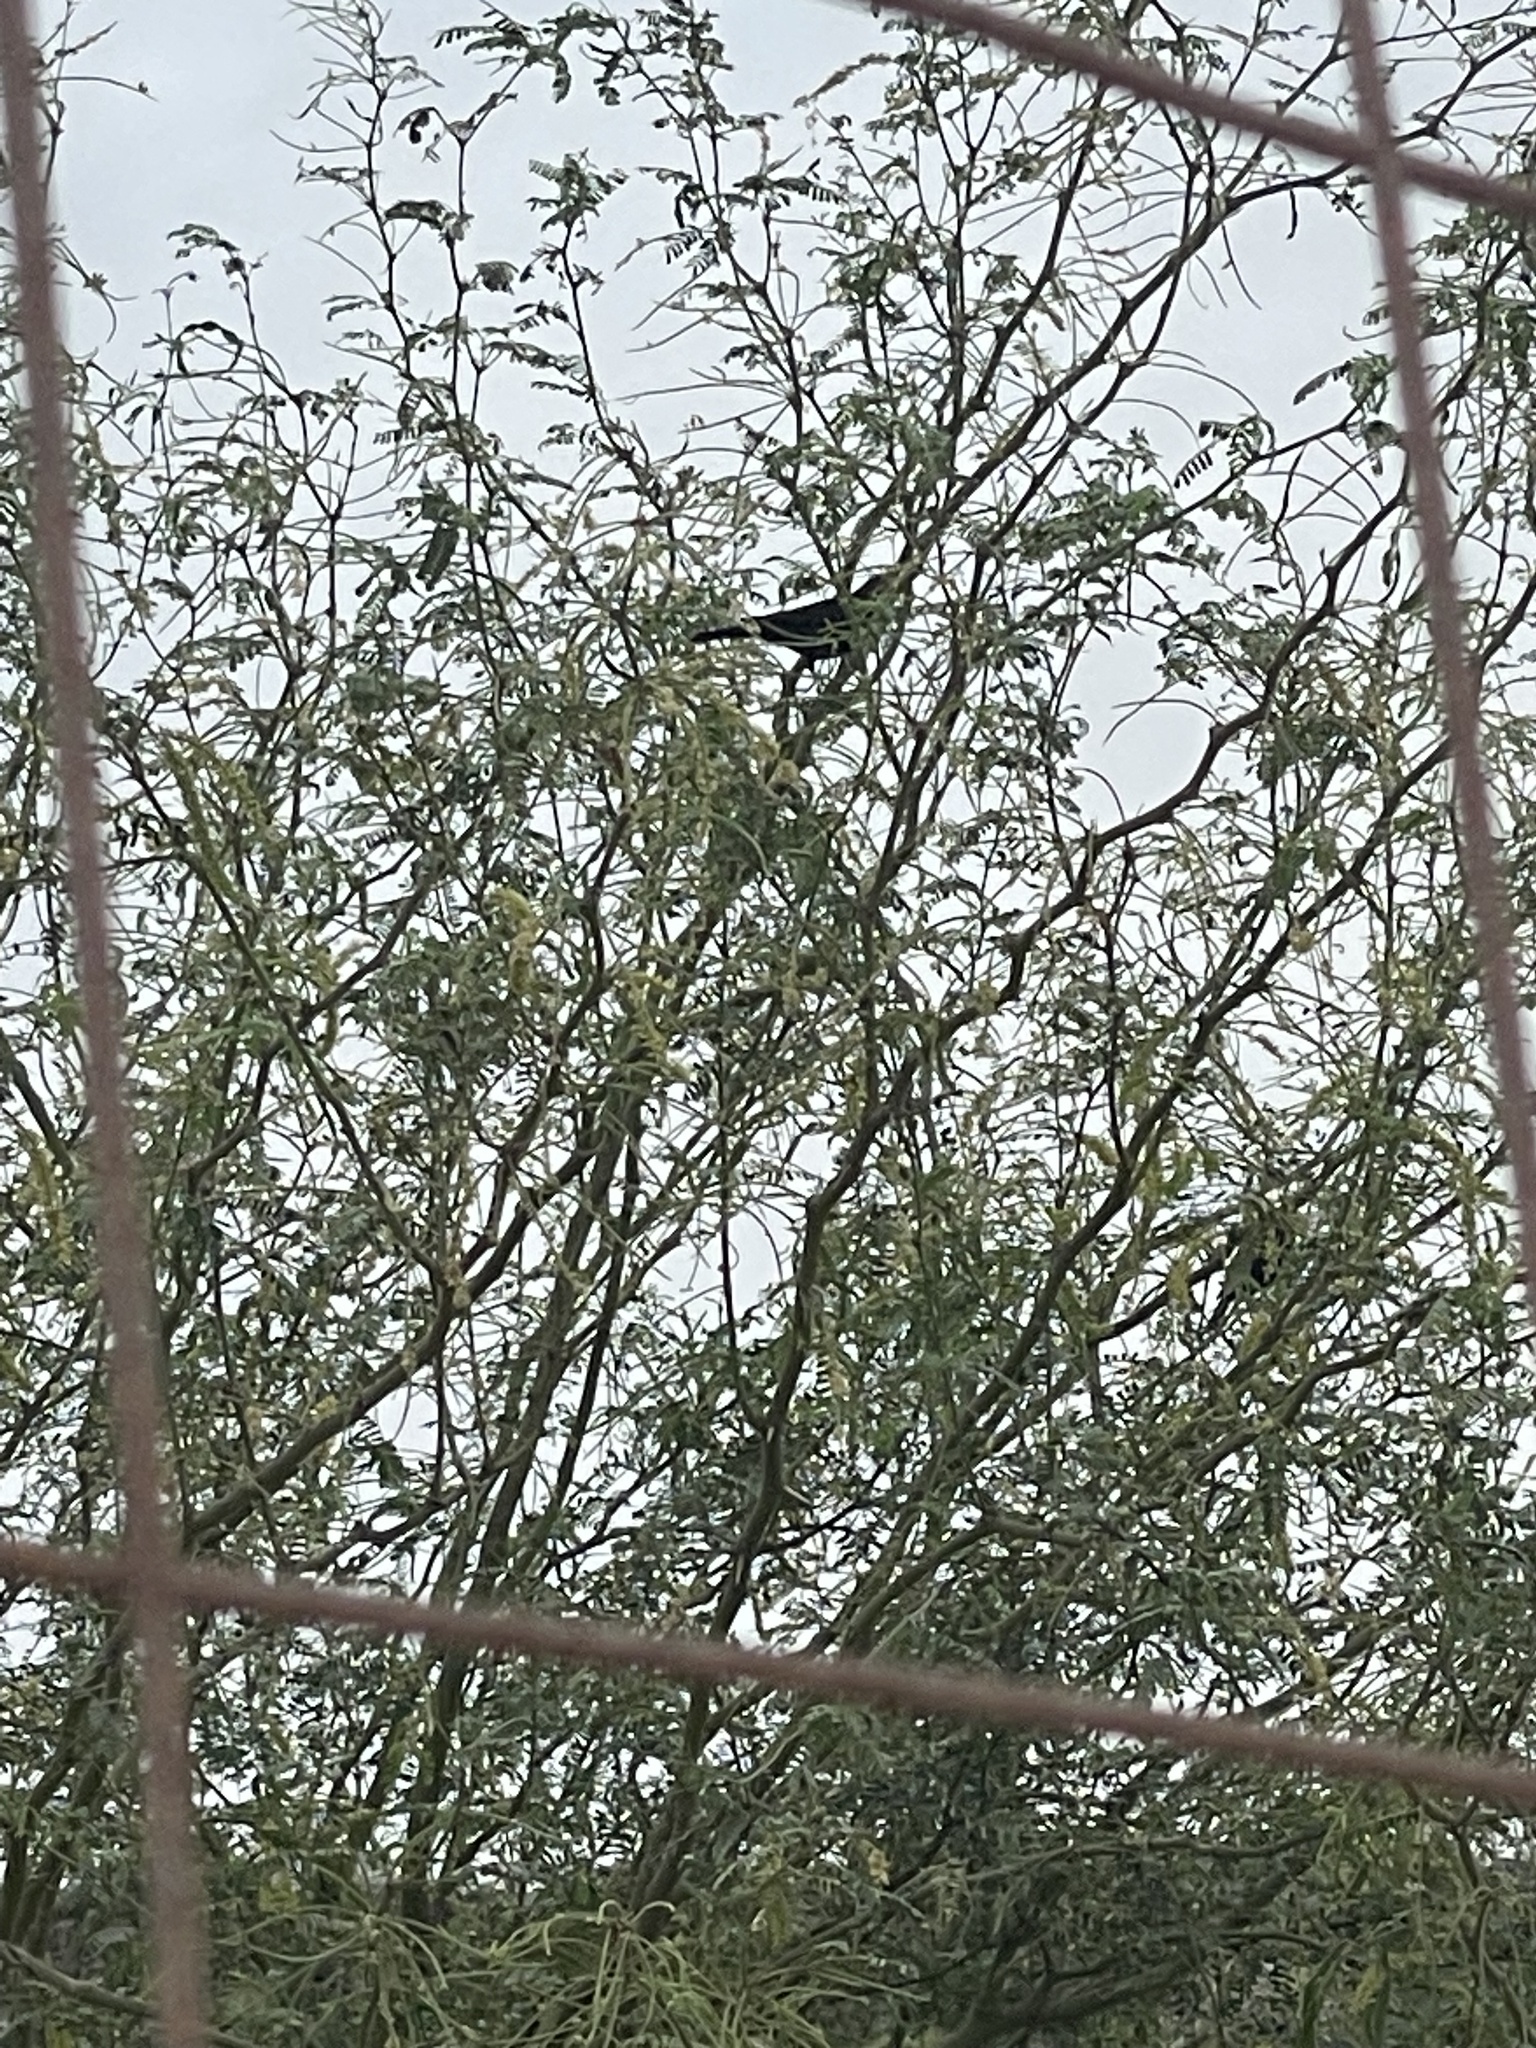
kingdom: Animalia
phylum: Chordata
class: Aves
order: Passeriformes
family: Ptilogonatidae
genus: Phainopepla
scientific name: Phainopepla nitens
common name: Phainopepla
